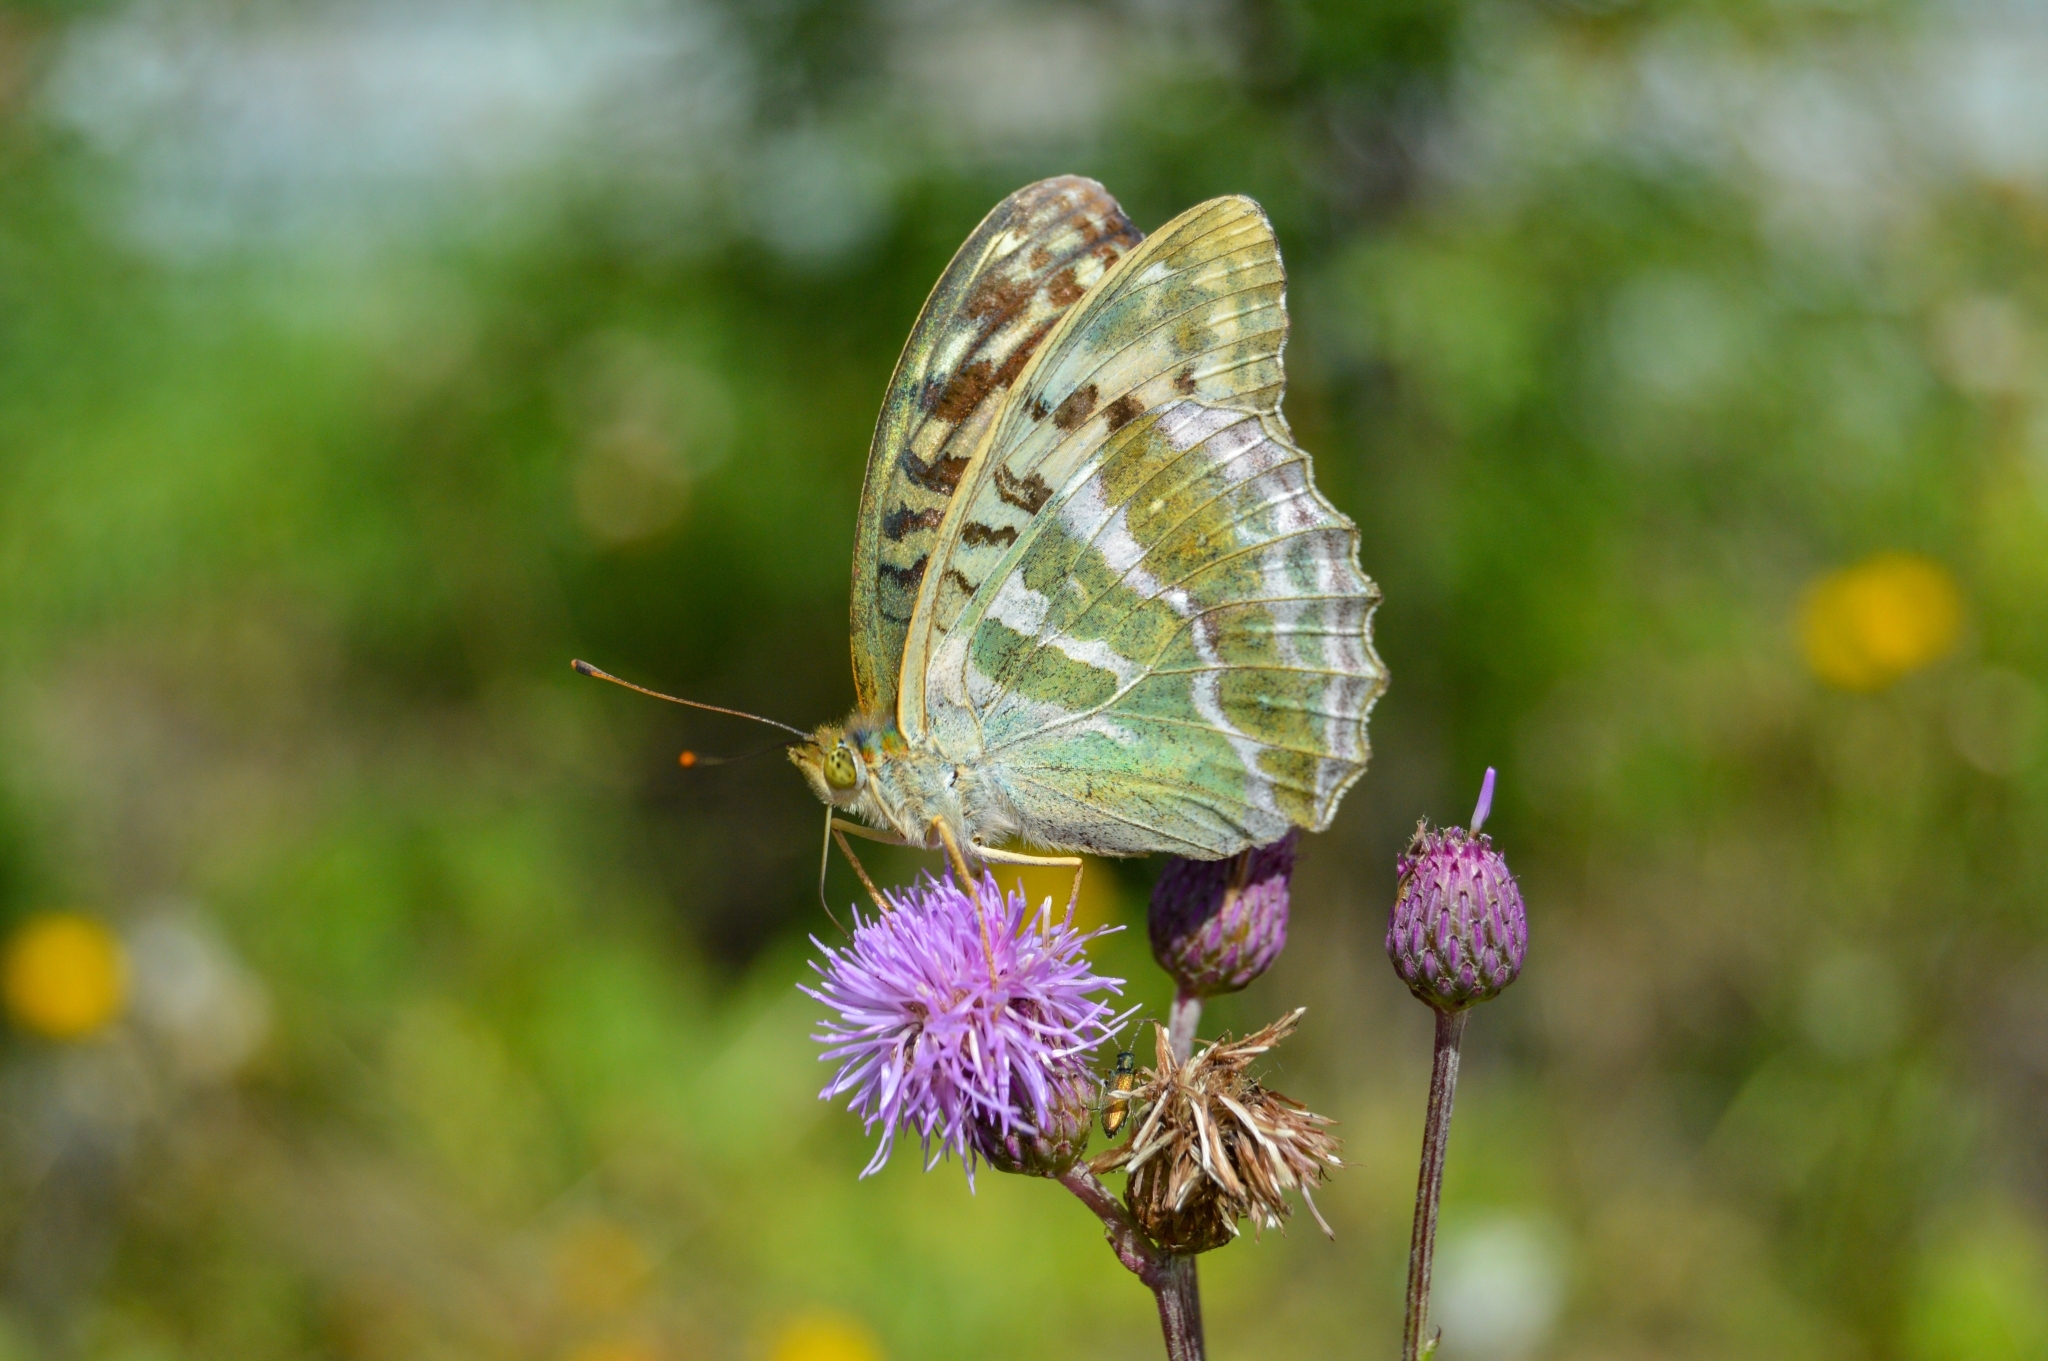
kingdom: Animalia
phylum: Arthropoda
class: Insecta
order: Lepidoptera
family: Nymphalidae
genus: Argynnis
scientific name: Argynnis paphia
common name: Silver-washed fritillary
